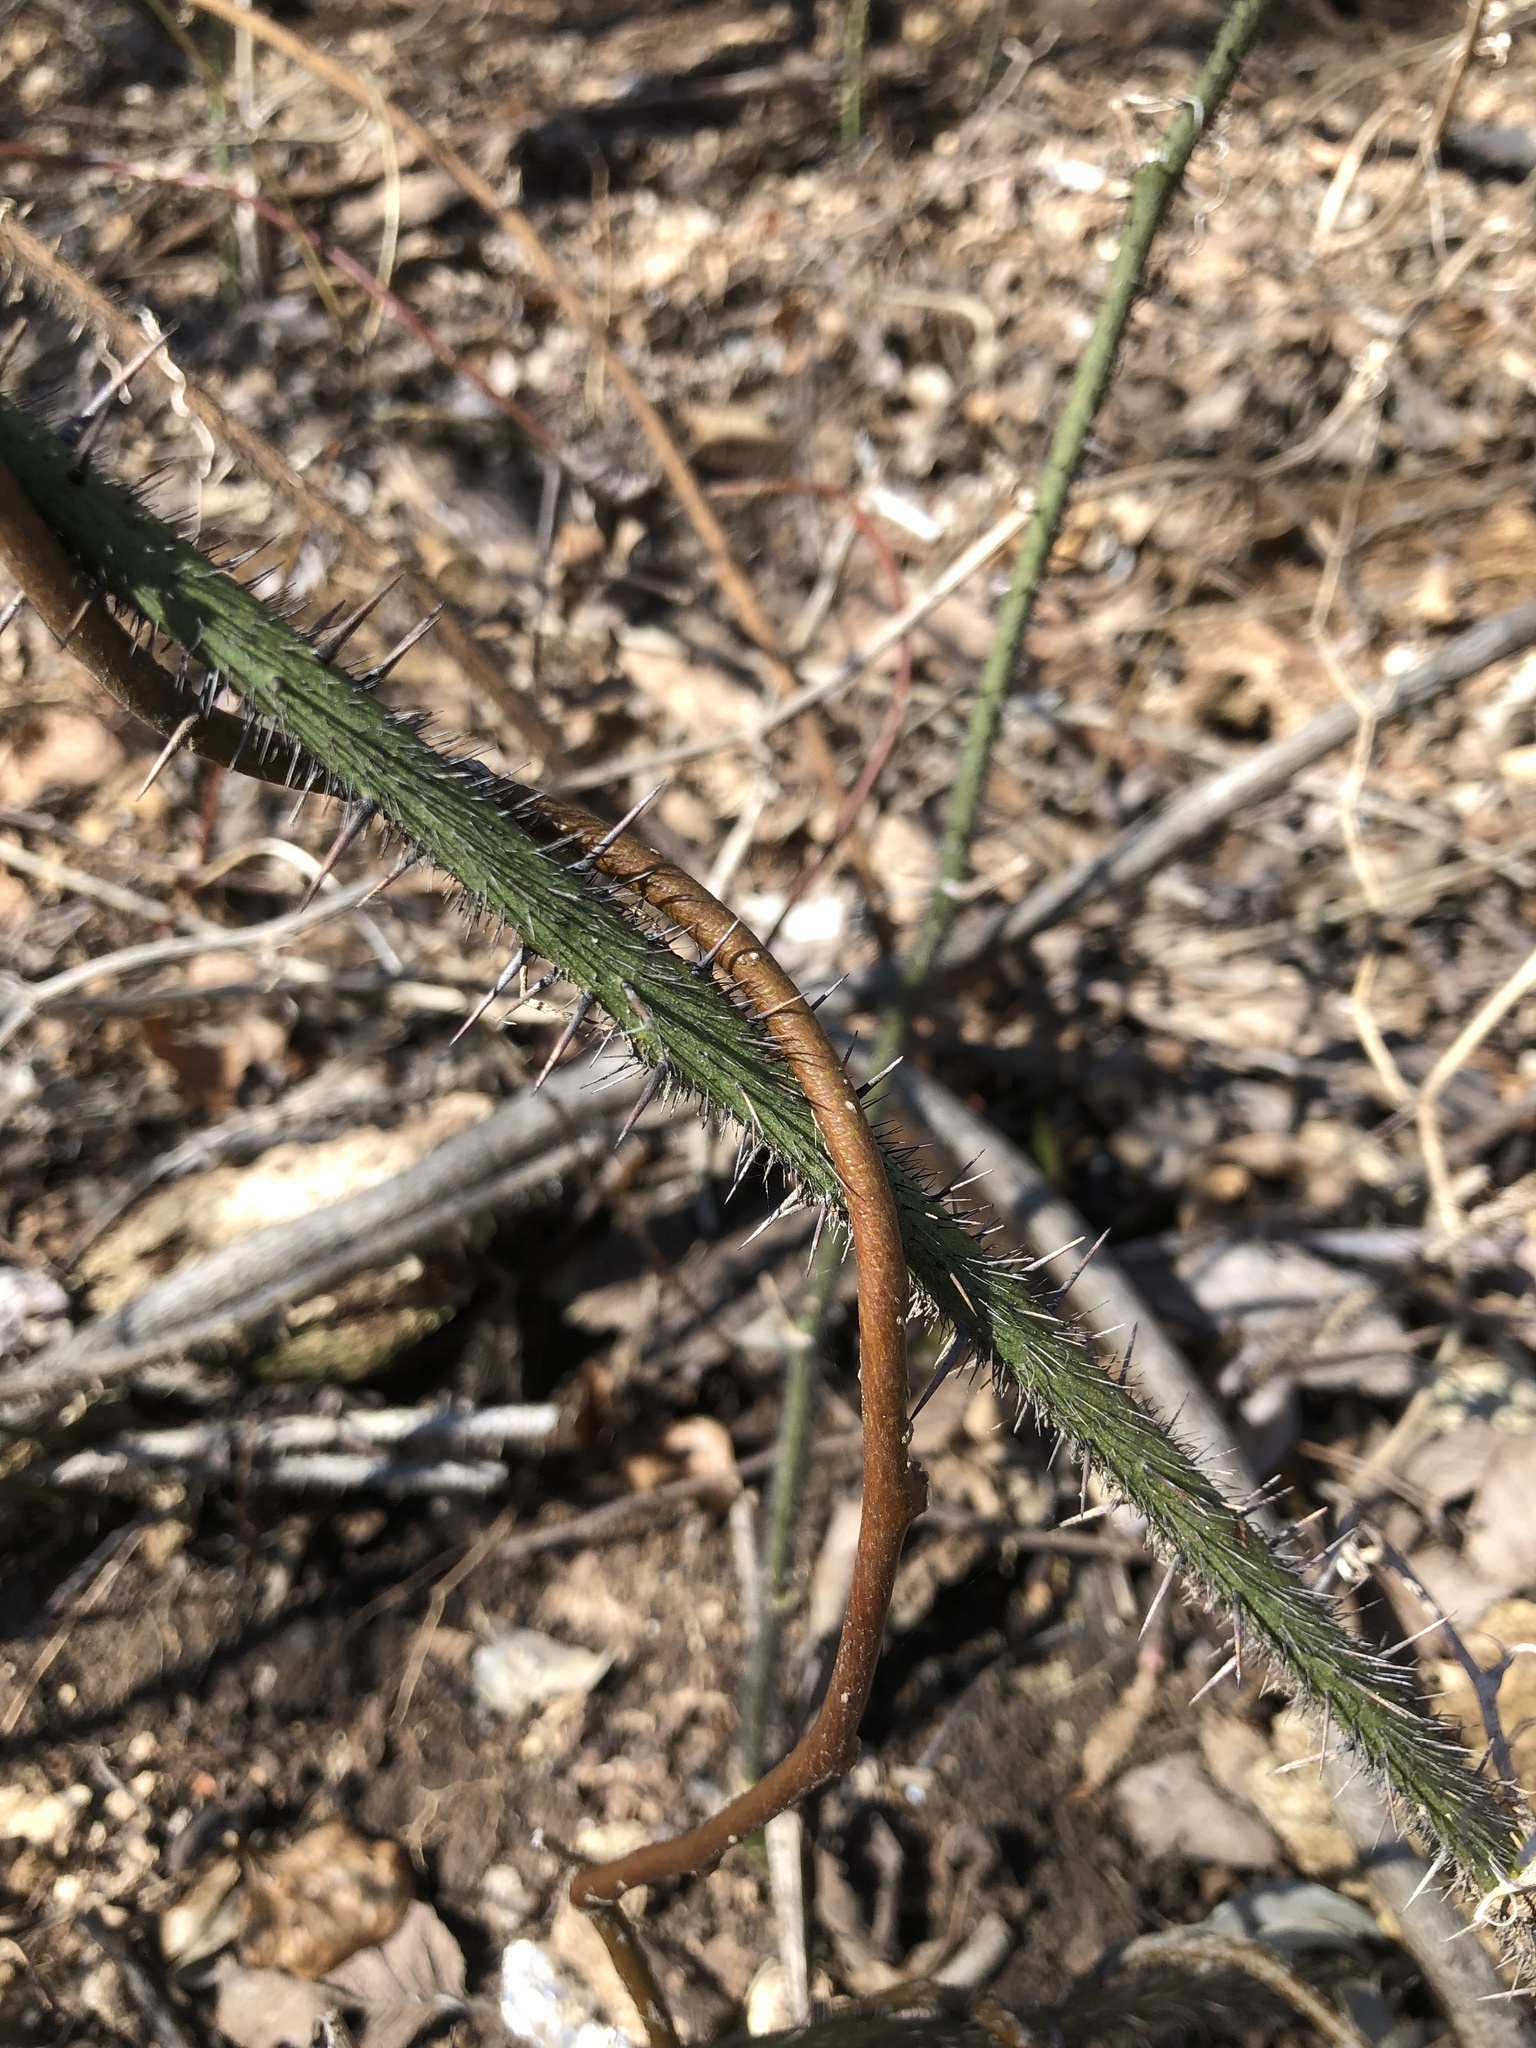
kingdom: Plantae
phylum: Tracheophyta
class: Liliopsida
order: Liliales
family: Smilacaceae
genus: Smilax
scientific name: Smilax tamnoides
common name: Hellfetter
